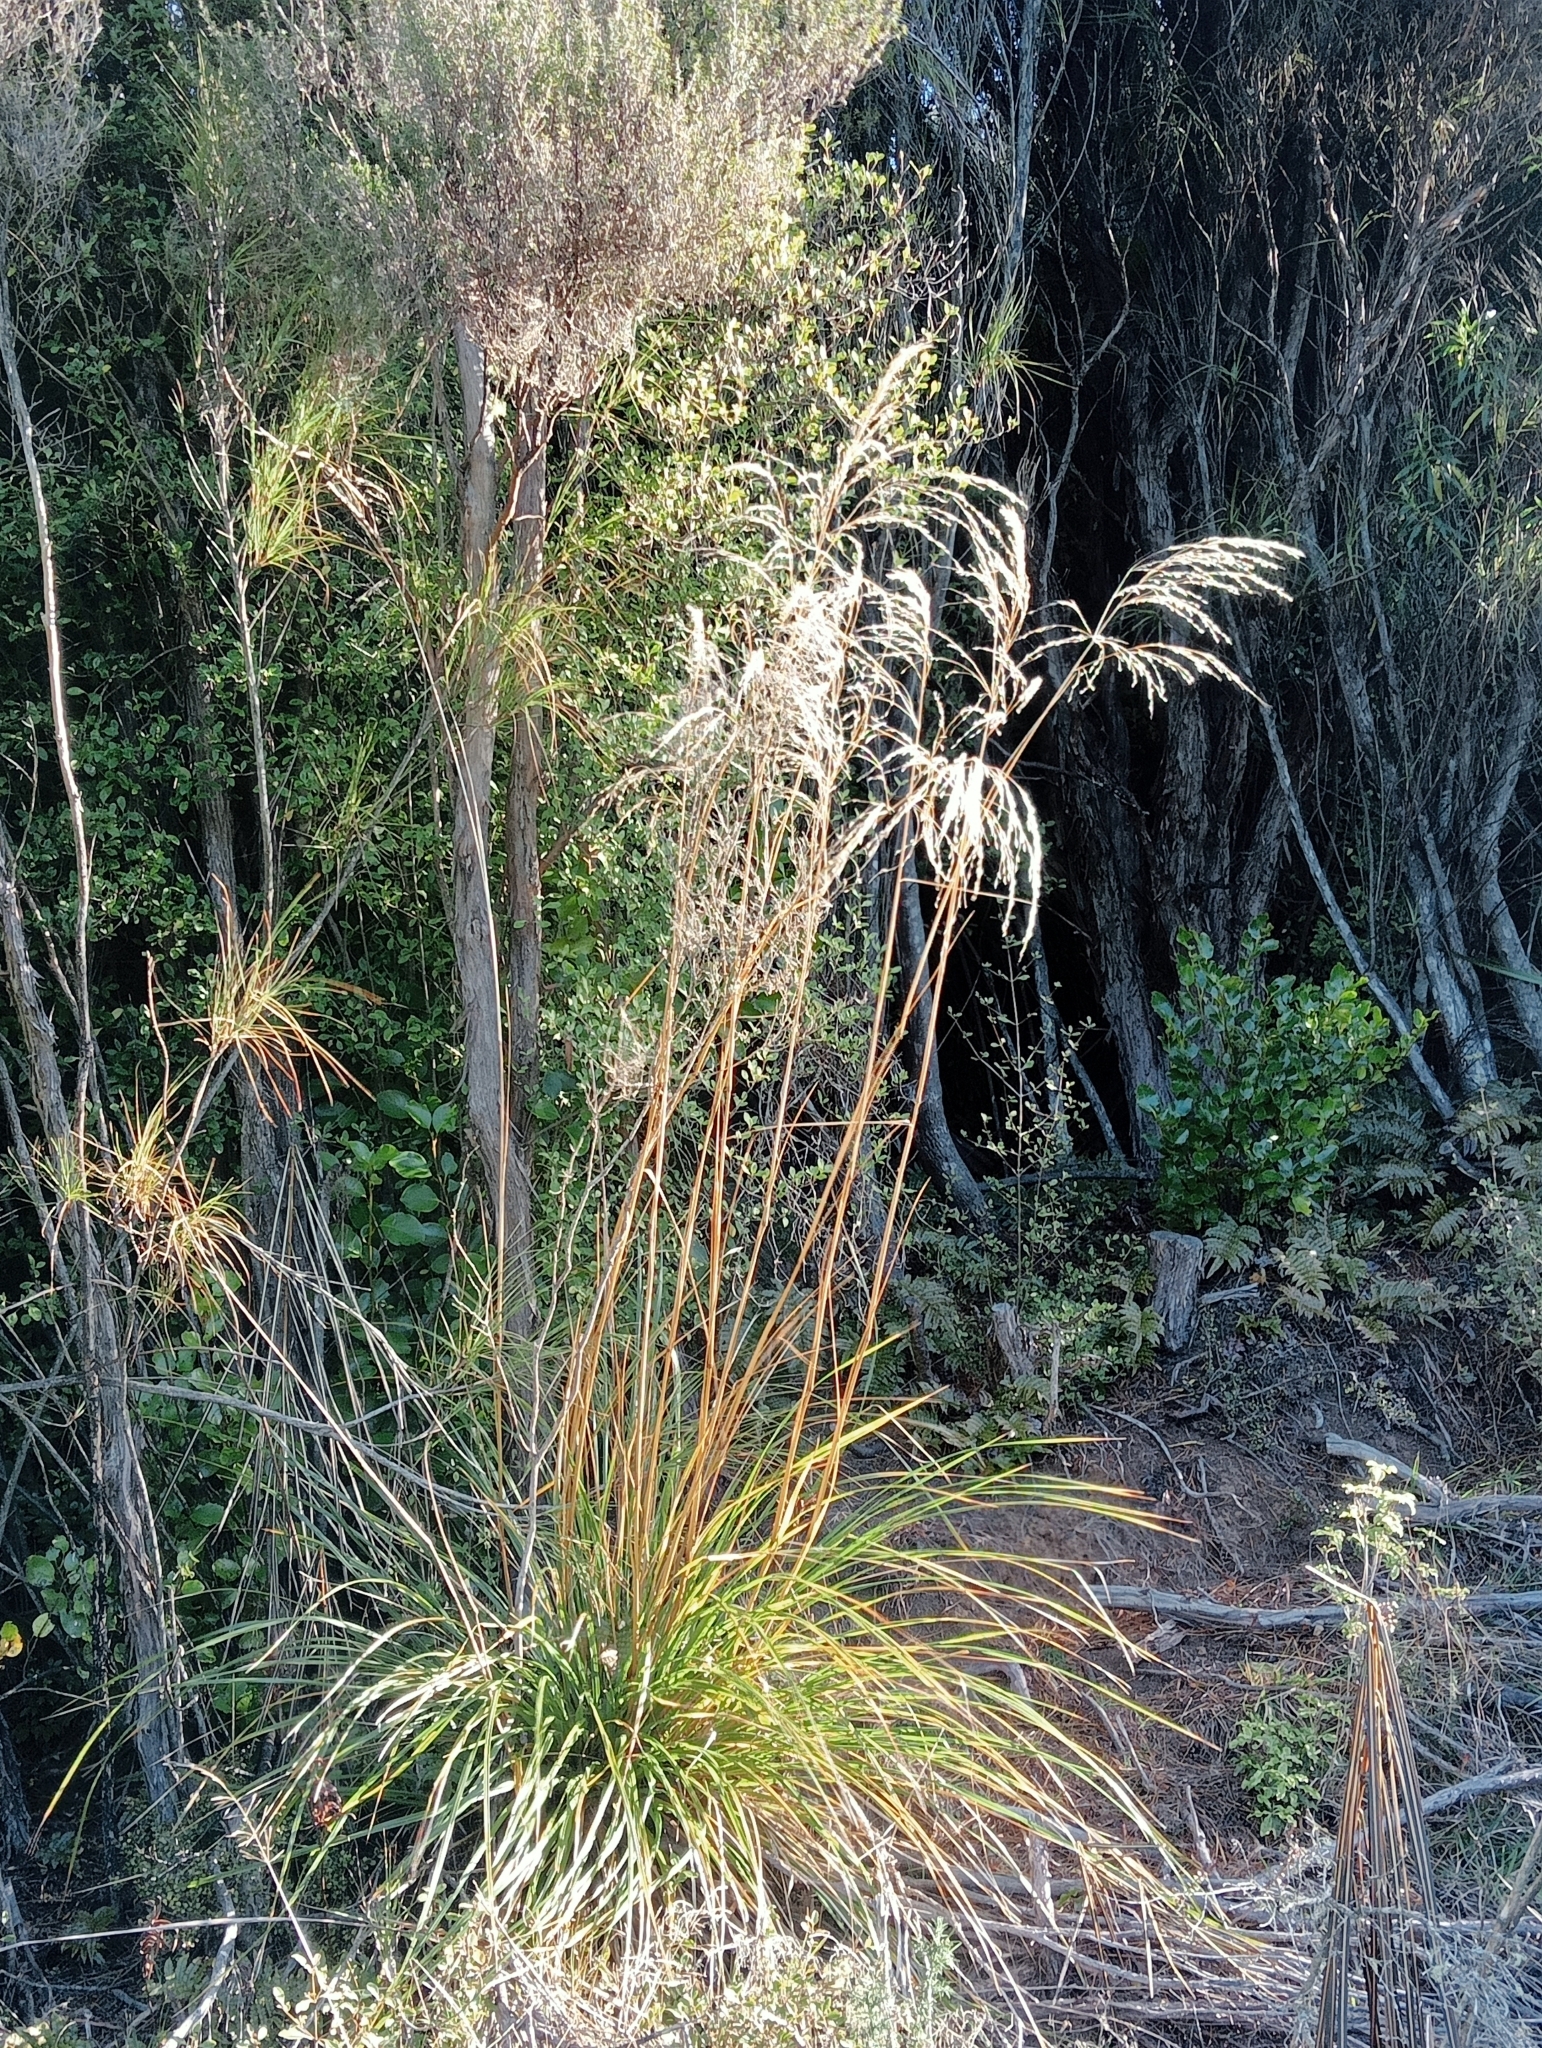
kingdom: Plantae
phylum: Tracheophyta
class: Liliopsida
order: Poales
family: Poaceae
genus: Chionochloa
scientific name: Chionochloa conspicua
